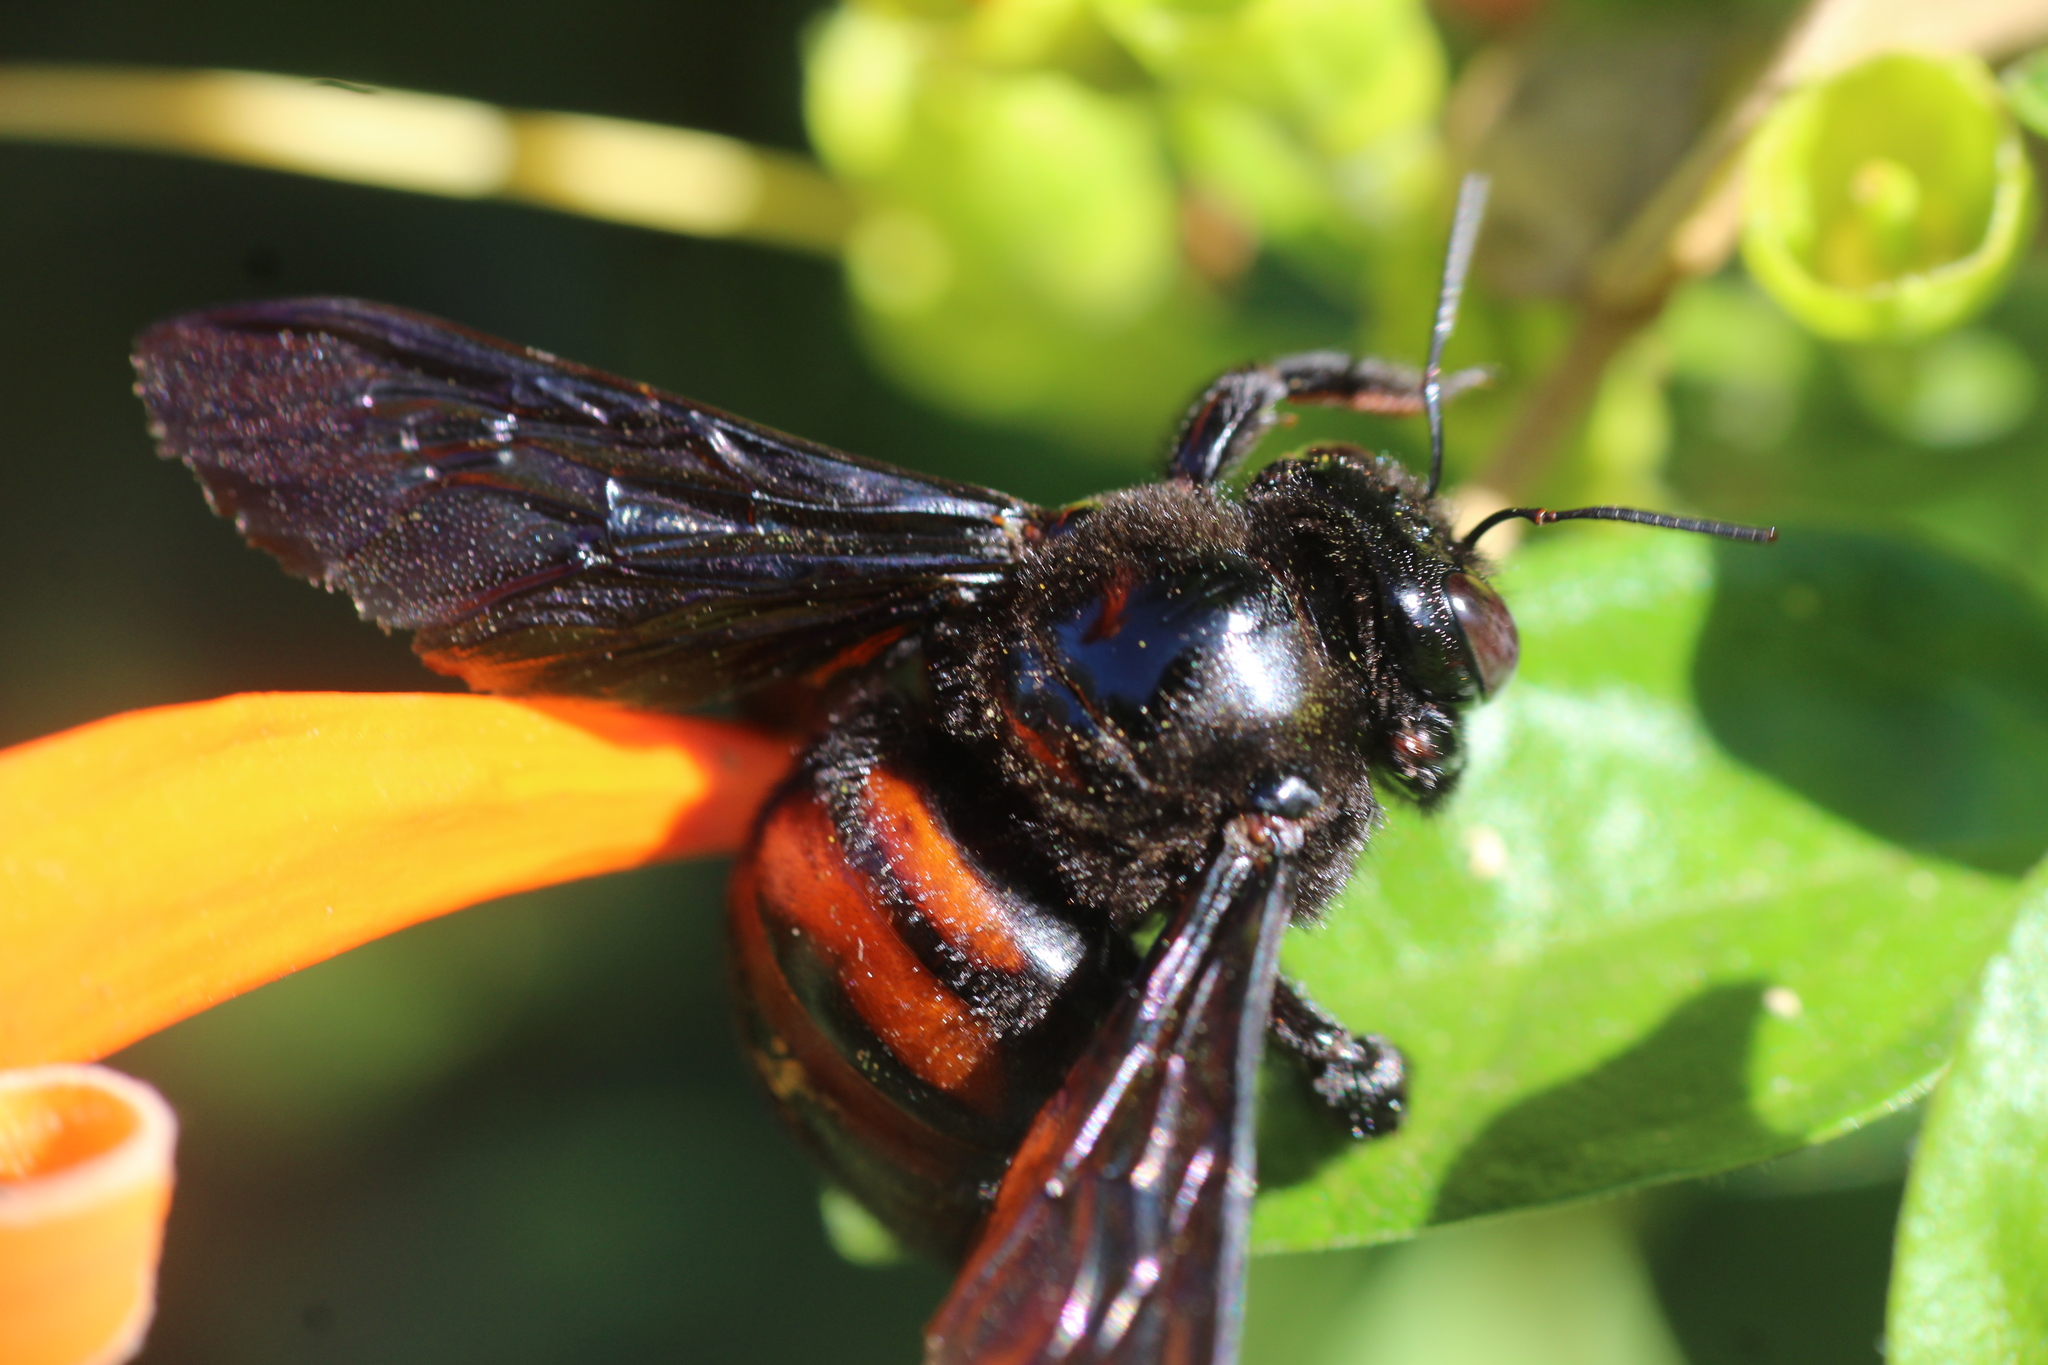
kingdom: Animalia
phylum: Arthropoda
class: Insecta
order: Hymenoptera
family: Apidae
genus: Xylocopa
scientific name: Xylocopa frontalis
